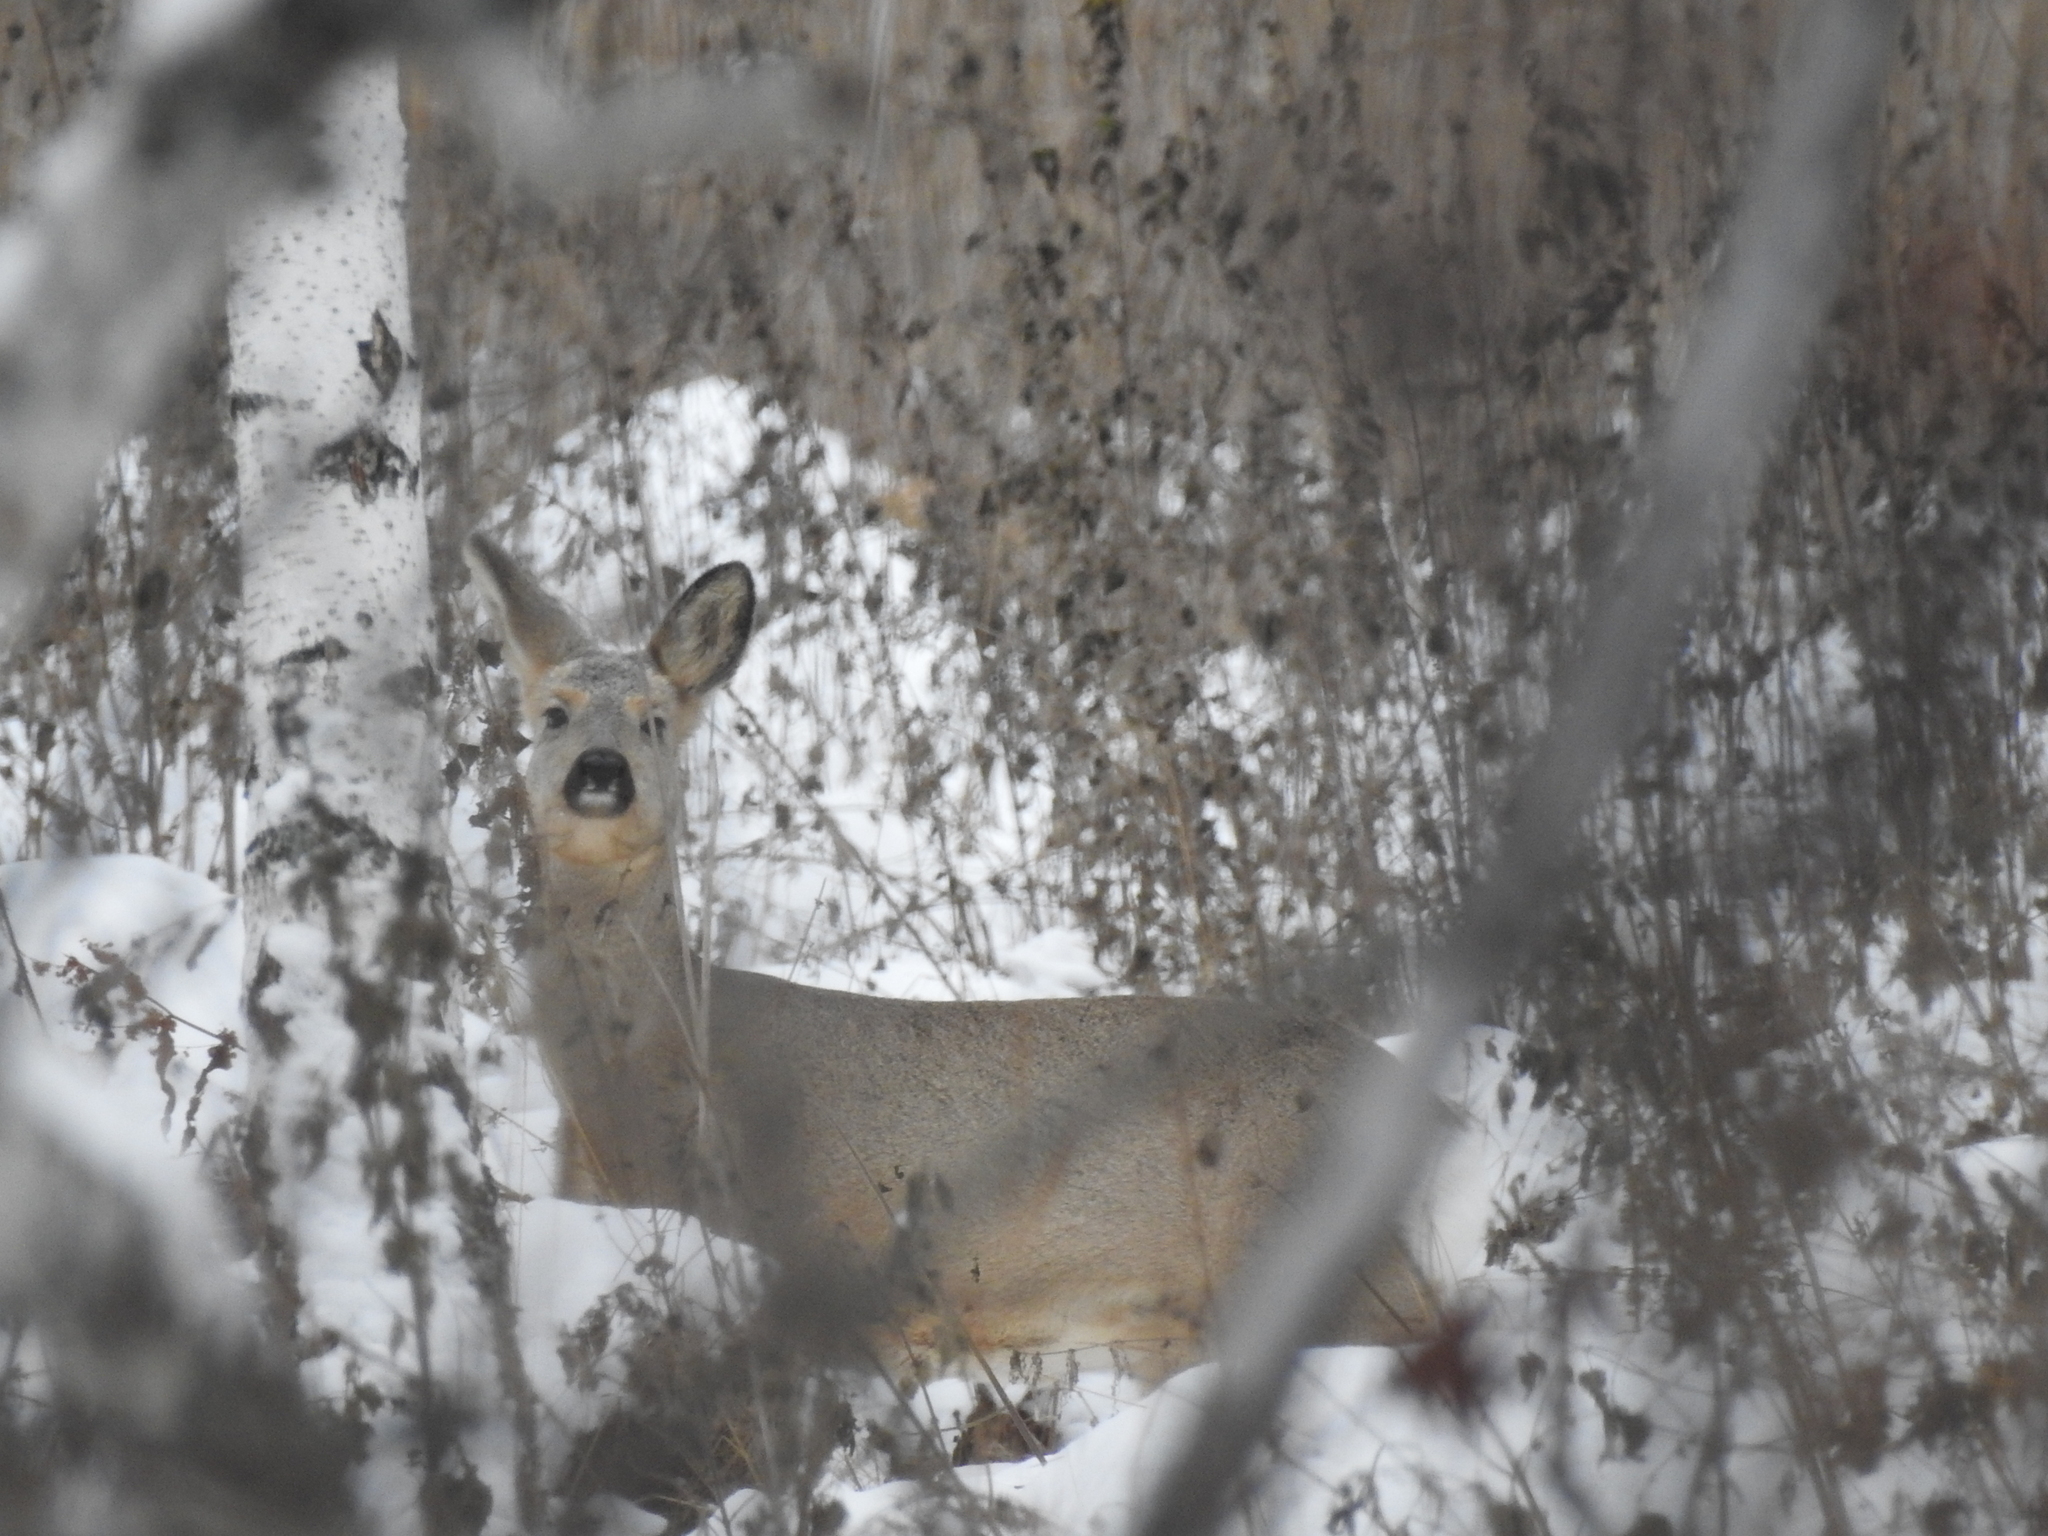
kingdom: Animalia
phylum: Chordata
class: Mammalia
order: Artiodactyla
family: Cervidae
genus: Capreolus
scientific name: Capreolus pygargus
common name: Siberian roe
